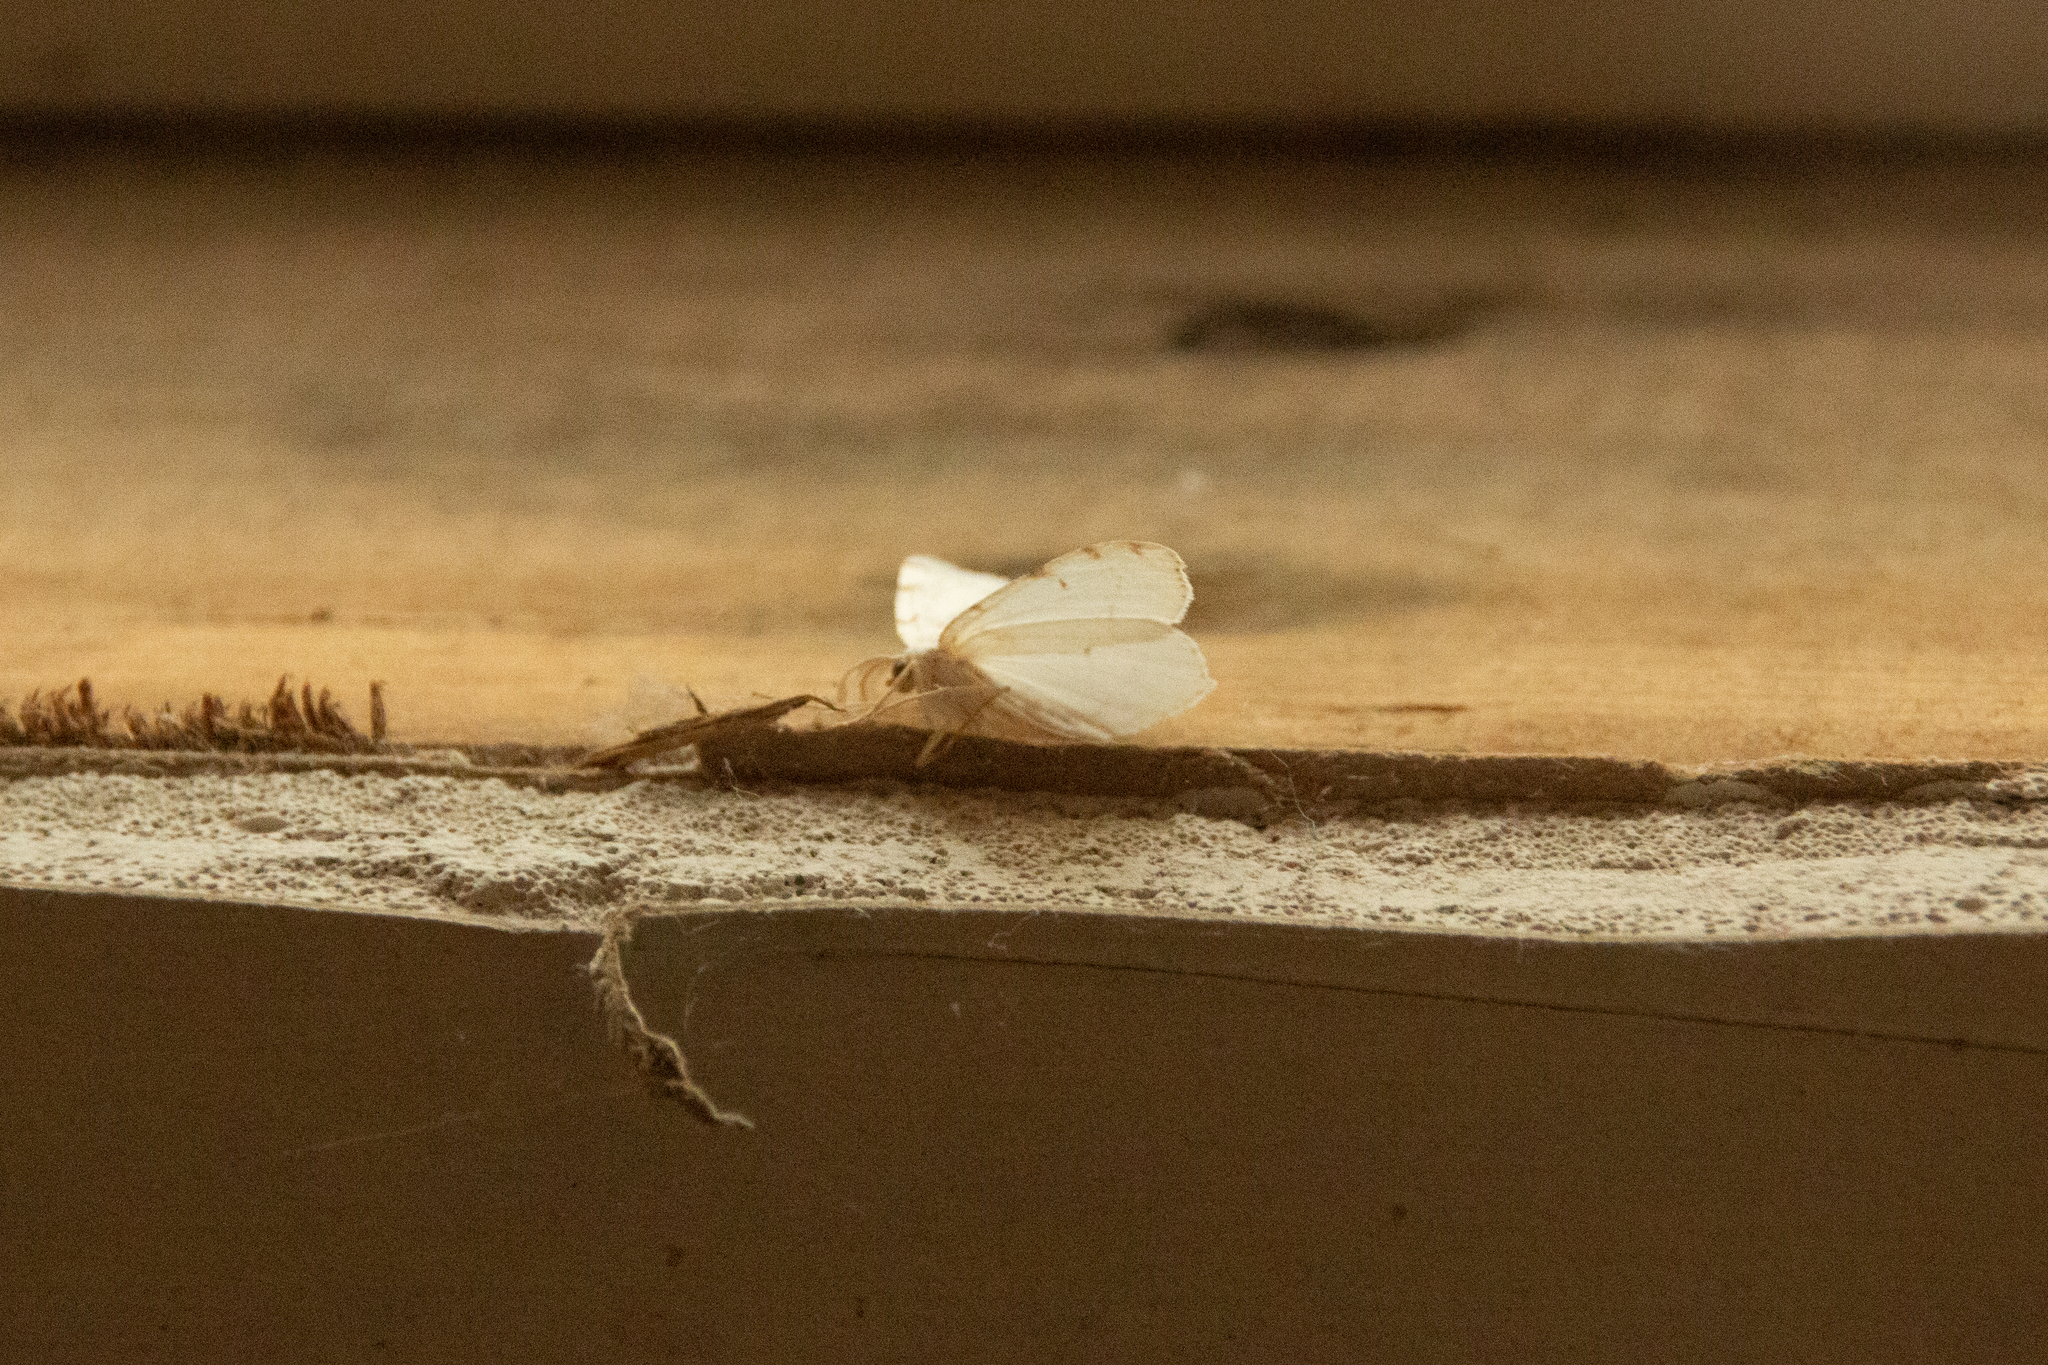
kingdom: Animalia
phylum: Arthropoda
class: Insecta
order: Lepidoptera
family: Geometridae
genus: Macaria
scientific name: Macaria pustularia
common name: Lesser maple spanworm moth
